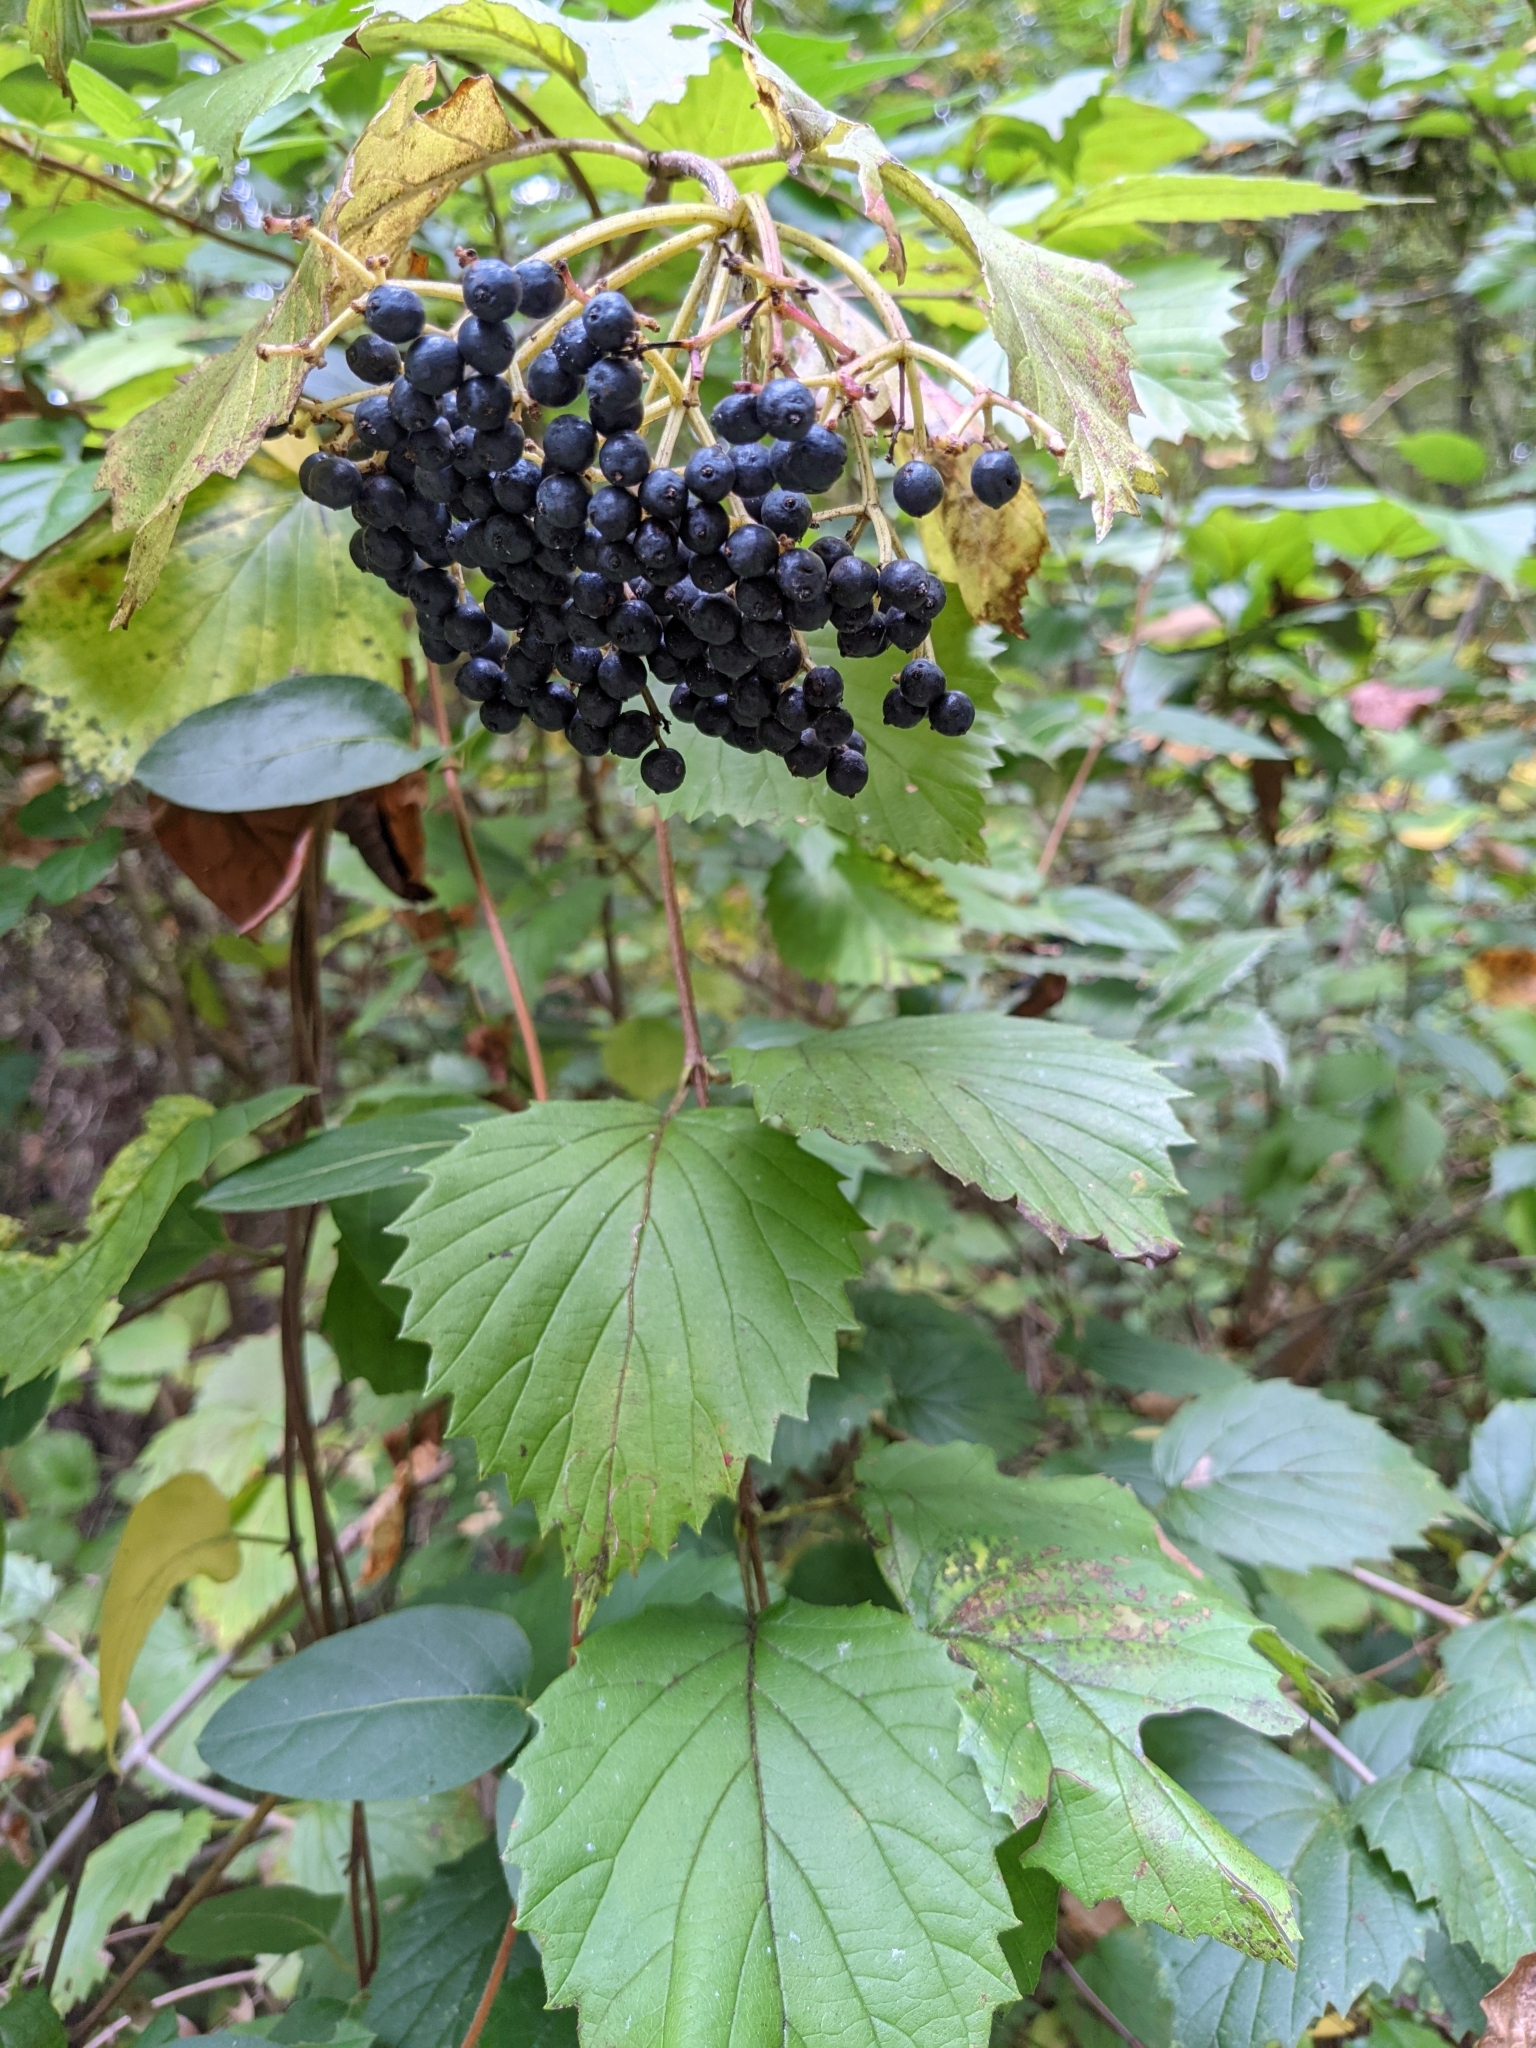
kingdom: Plantae
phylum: Tracheophyta
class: Magnoliopsida
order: Dipsacales
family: Viburnaceae
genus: Viburnum
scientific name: Viburnum dentatum
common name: Arrow-wood
